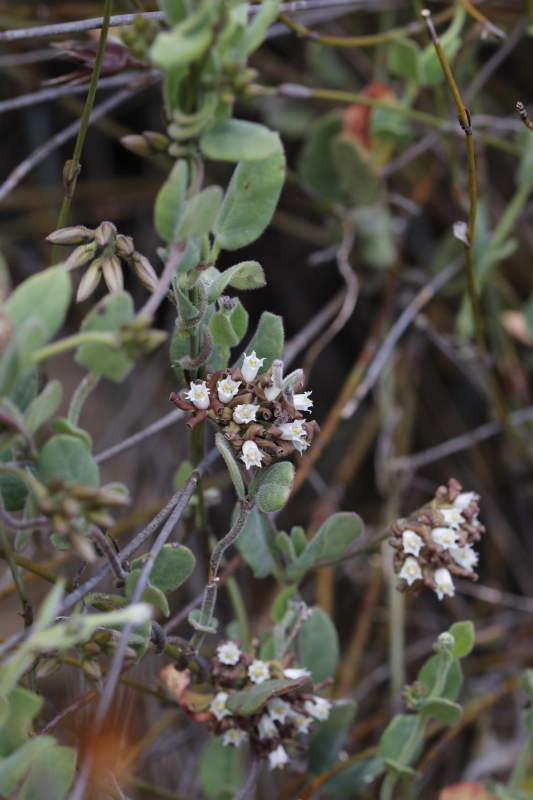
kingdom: Plantae
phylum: Tracheophyta
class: Magnoliopsida
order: Gentianales
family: Apocynaceae
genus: Cynanchum
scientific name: Cynanchum africanum
